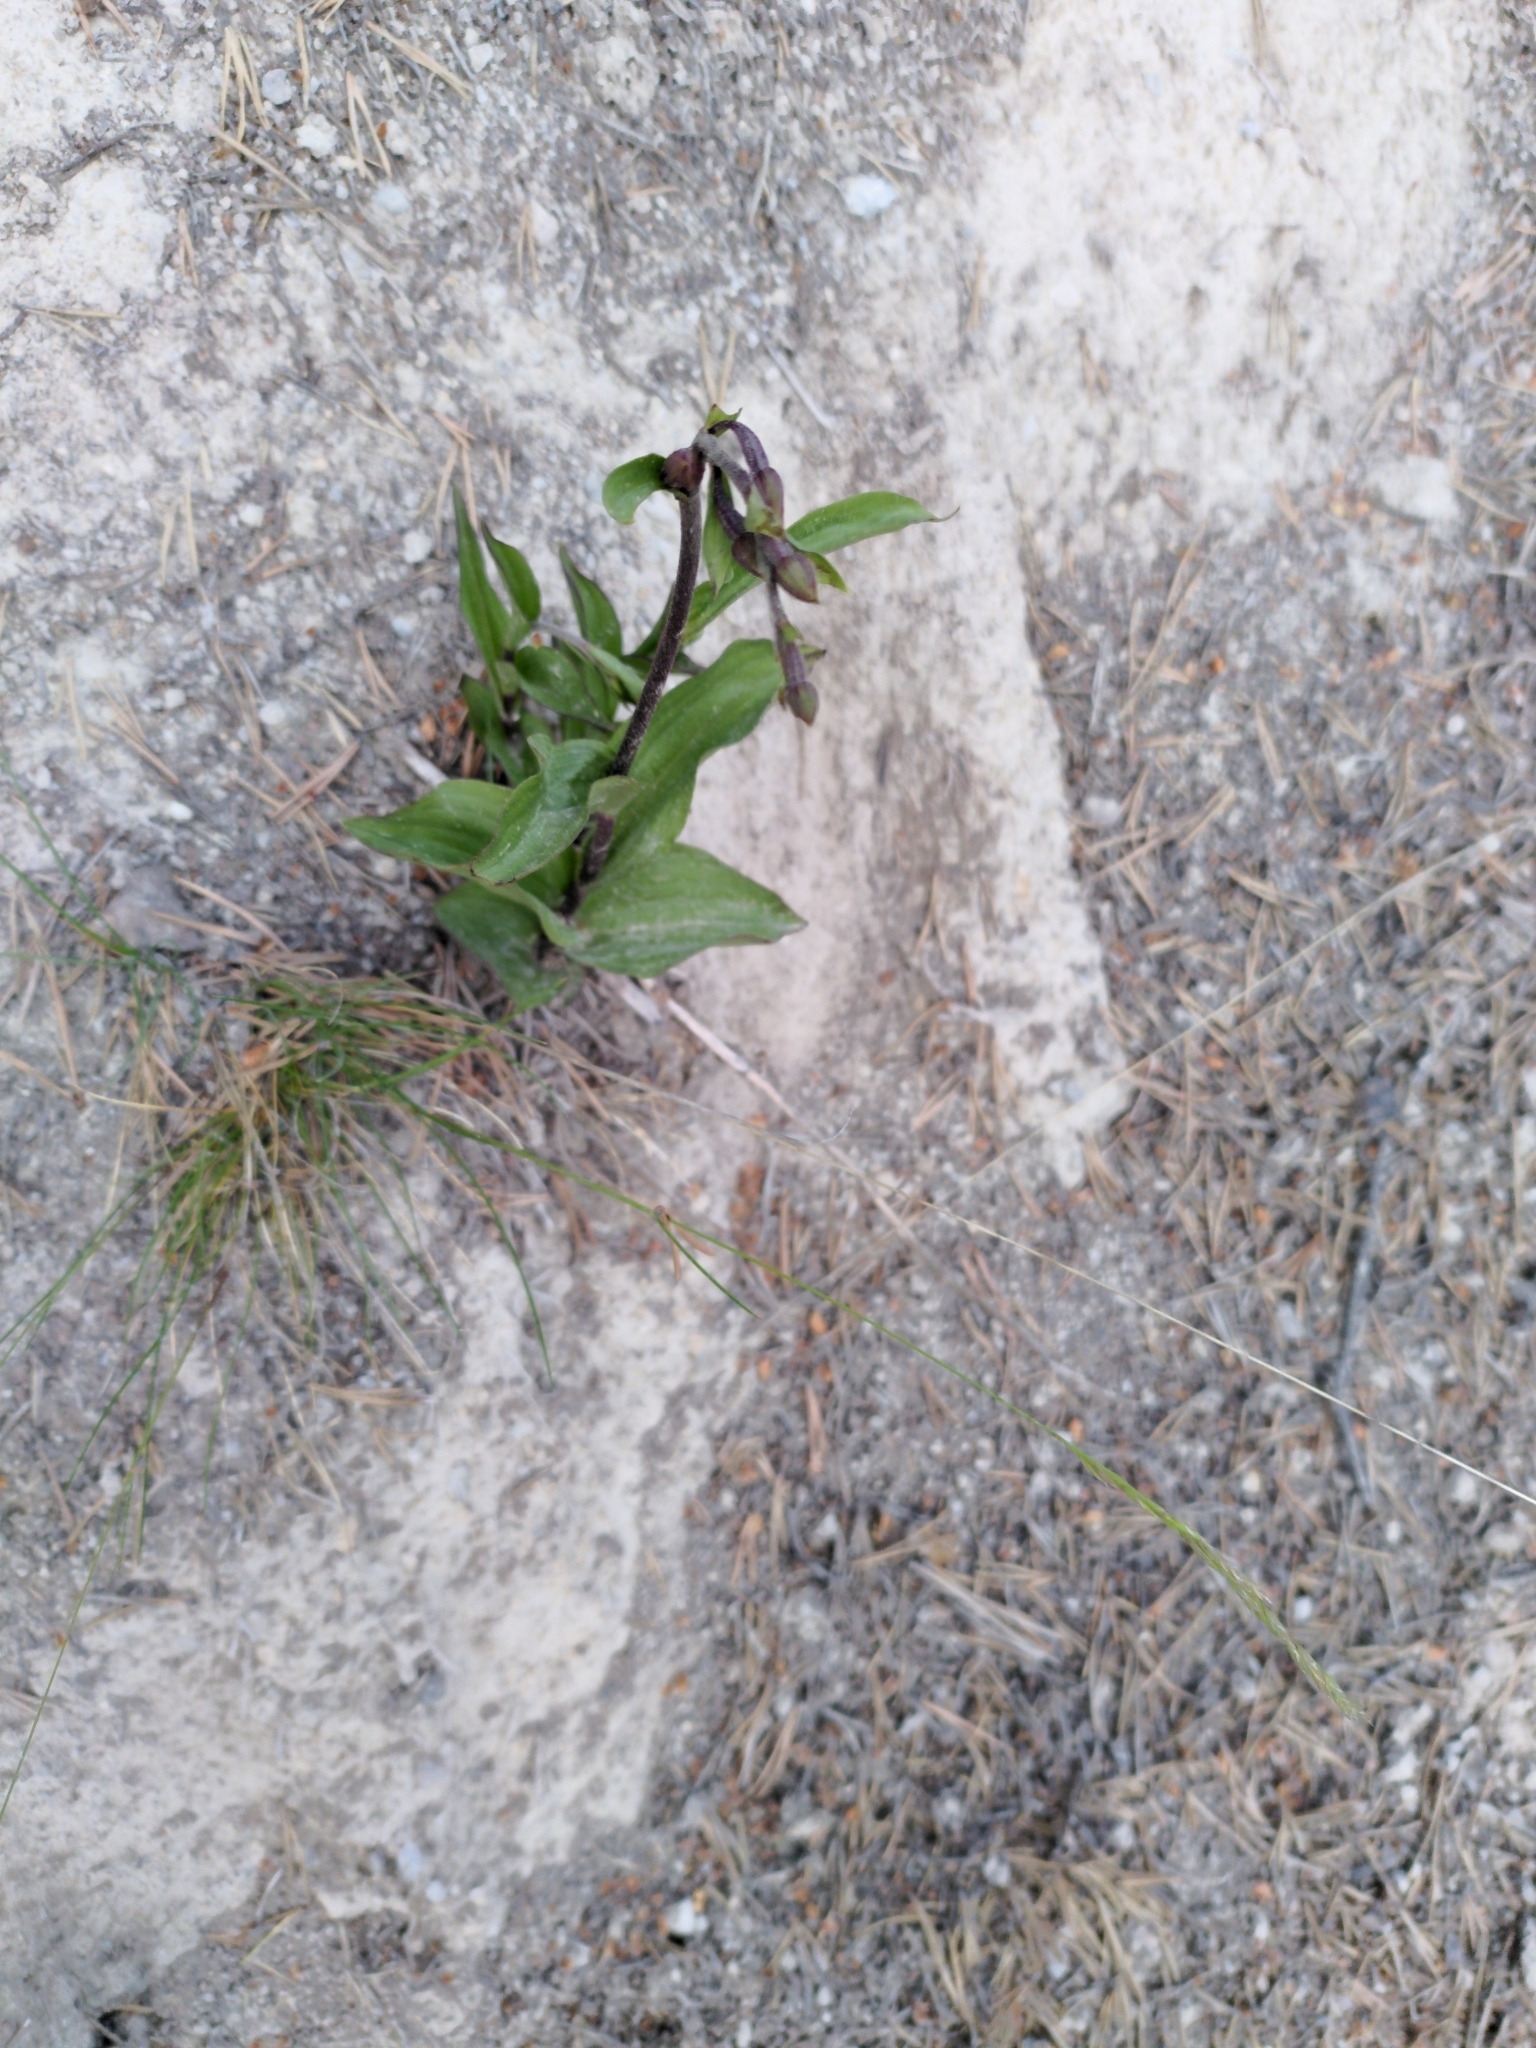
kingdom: Plantae
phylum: Tracheophyta
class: Liliopsida
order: Asparagales
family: Orchidaceae
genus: Epipactis
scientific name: Epipactis atrorubens
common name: Dark-red helleborine
